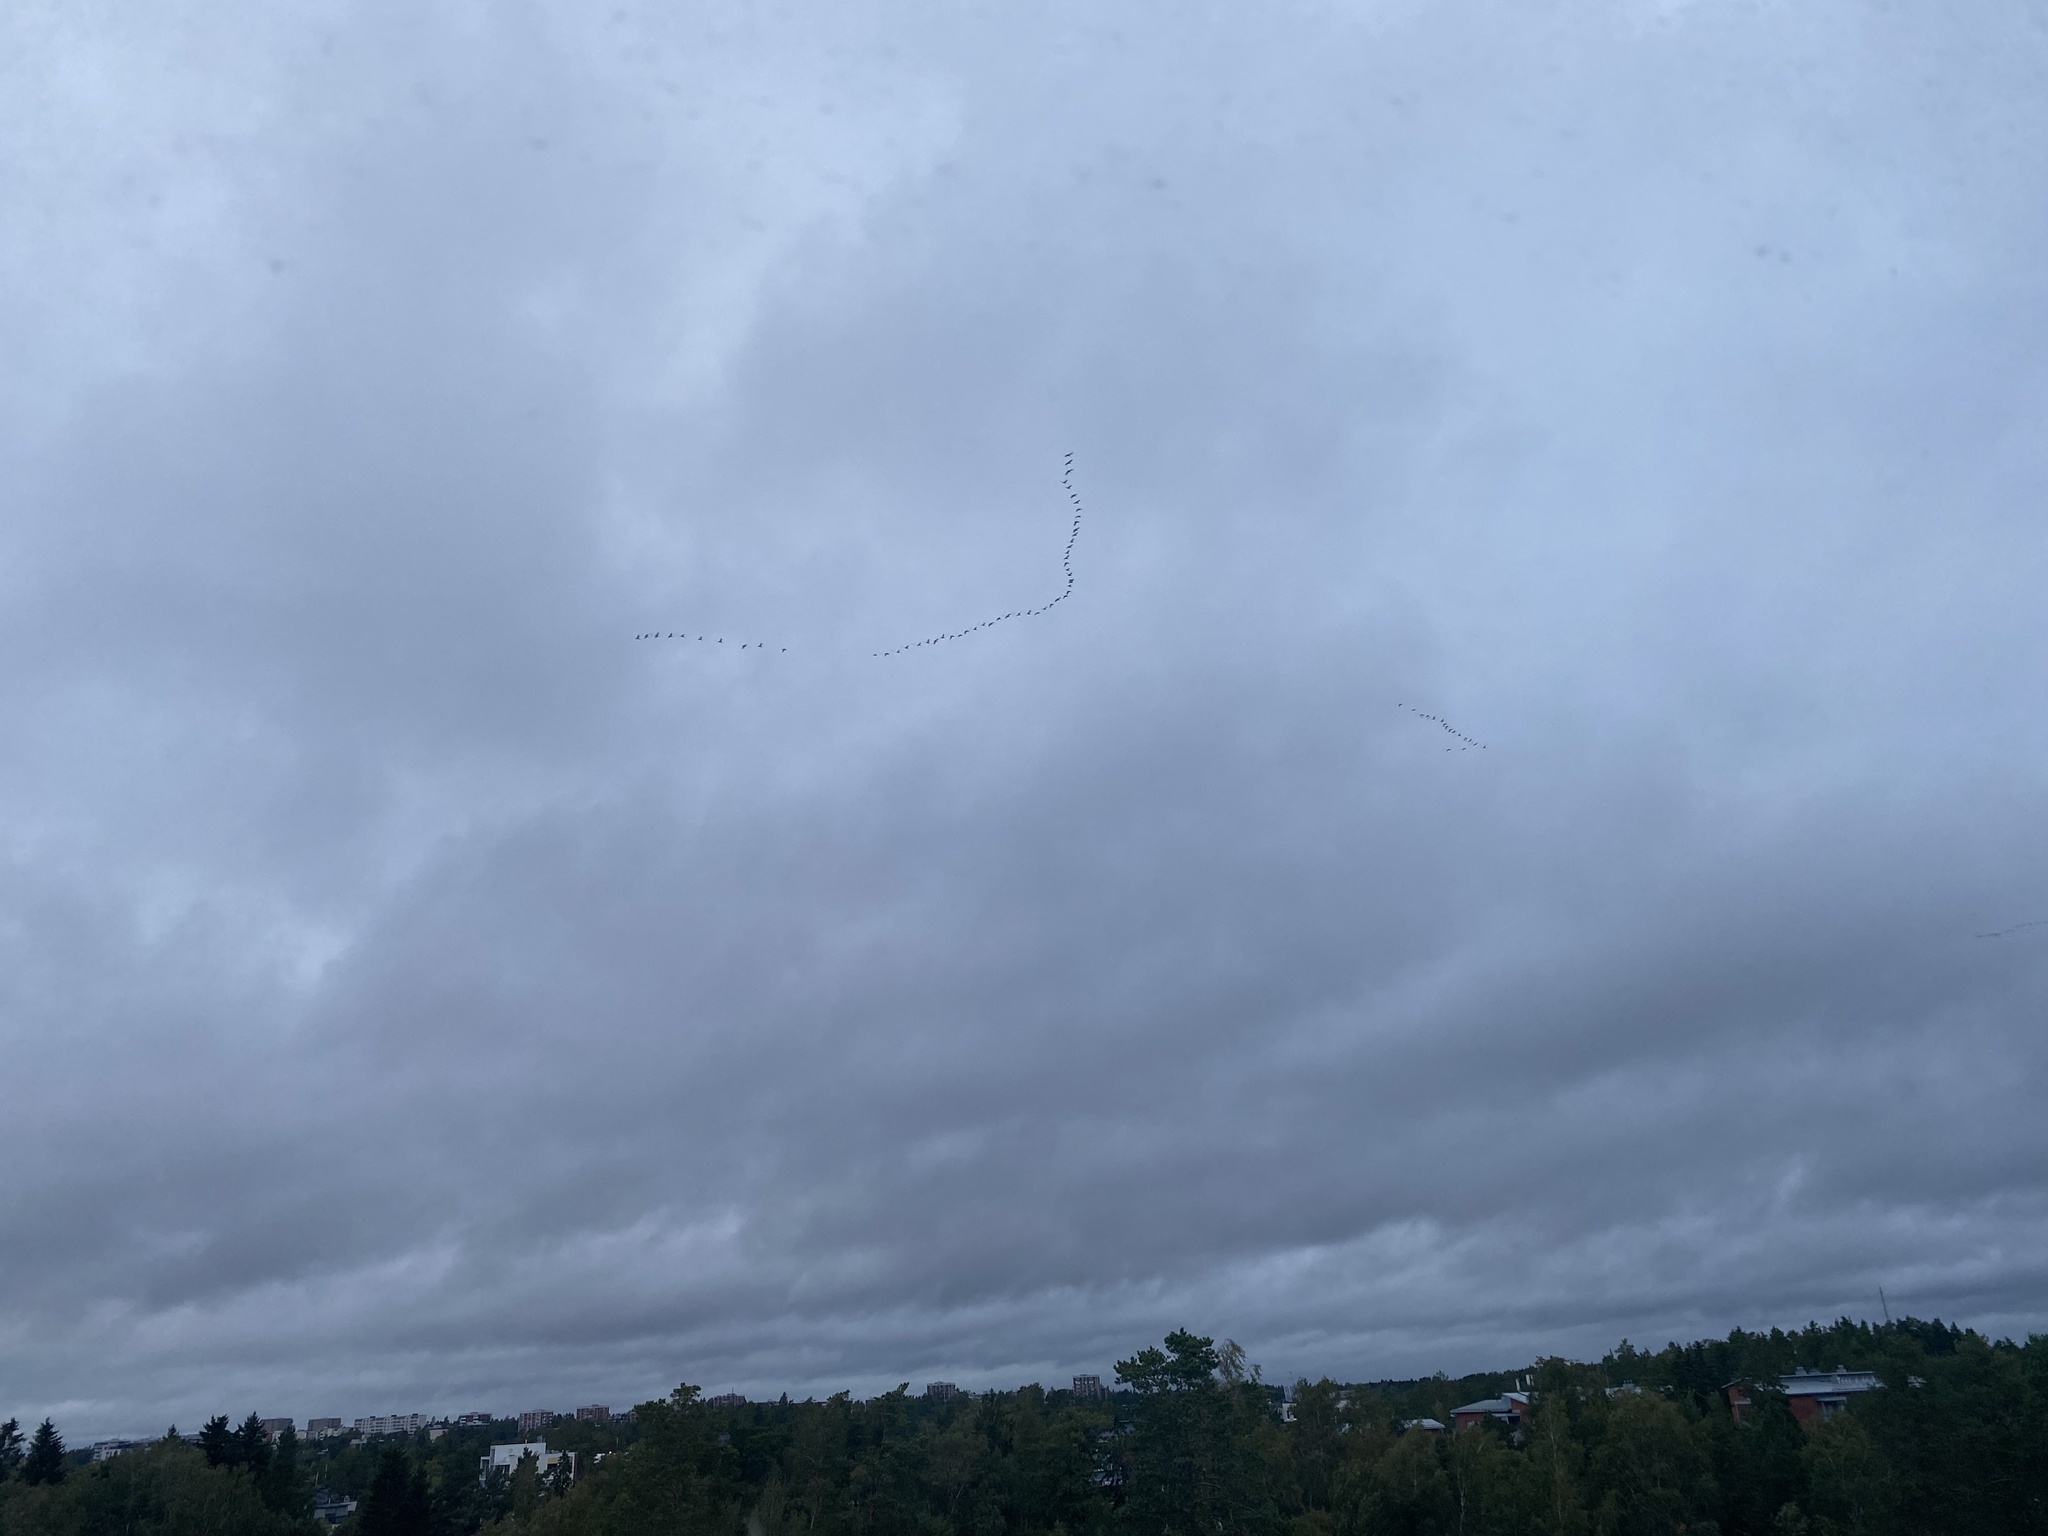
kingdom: Animalia
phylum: Chordata
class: Aves
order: Anseriformes
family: Anatidae
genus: Branta
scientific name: Branta leucopsis
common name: Barnacle goose
